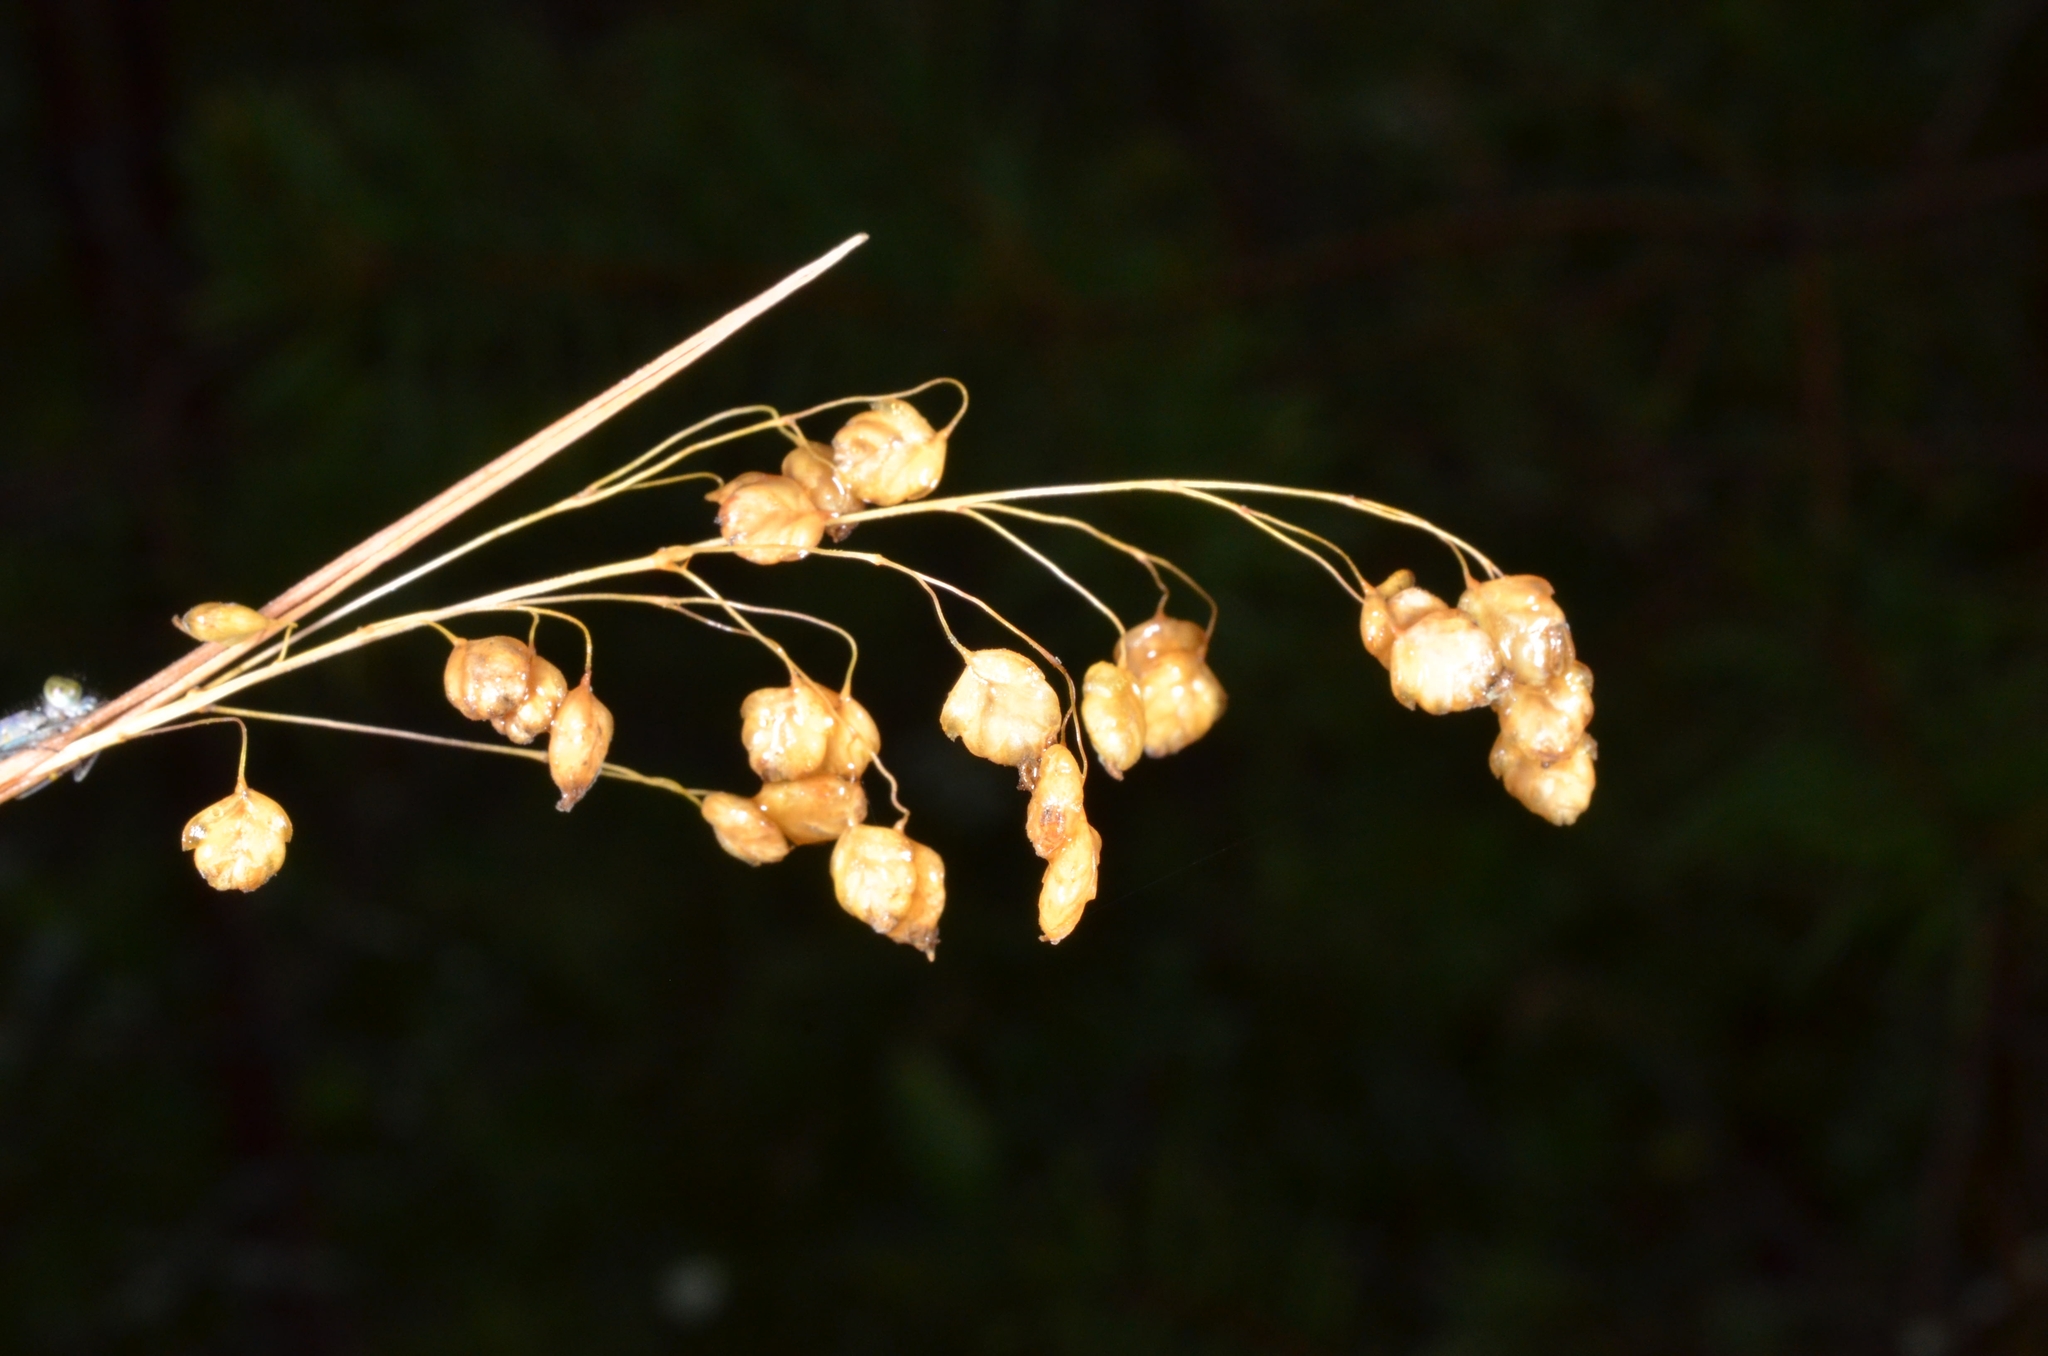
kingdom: Plantae
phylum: Tracheophyta
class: Liliopsida
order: Poales
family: Poaceae
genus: Briza
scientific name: Briza media
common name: Quaking grass
